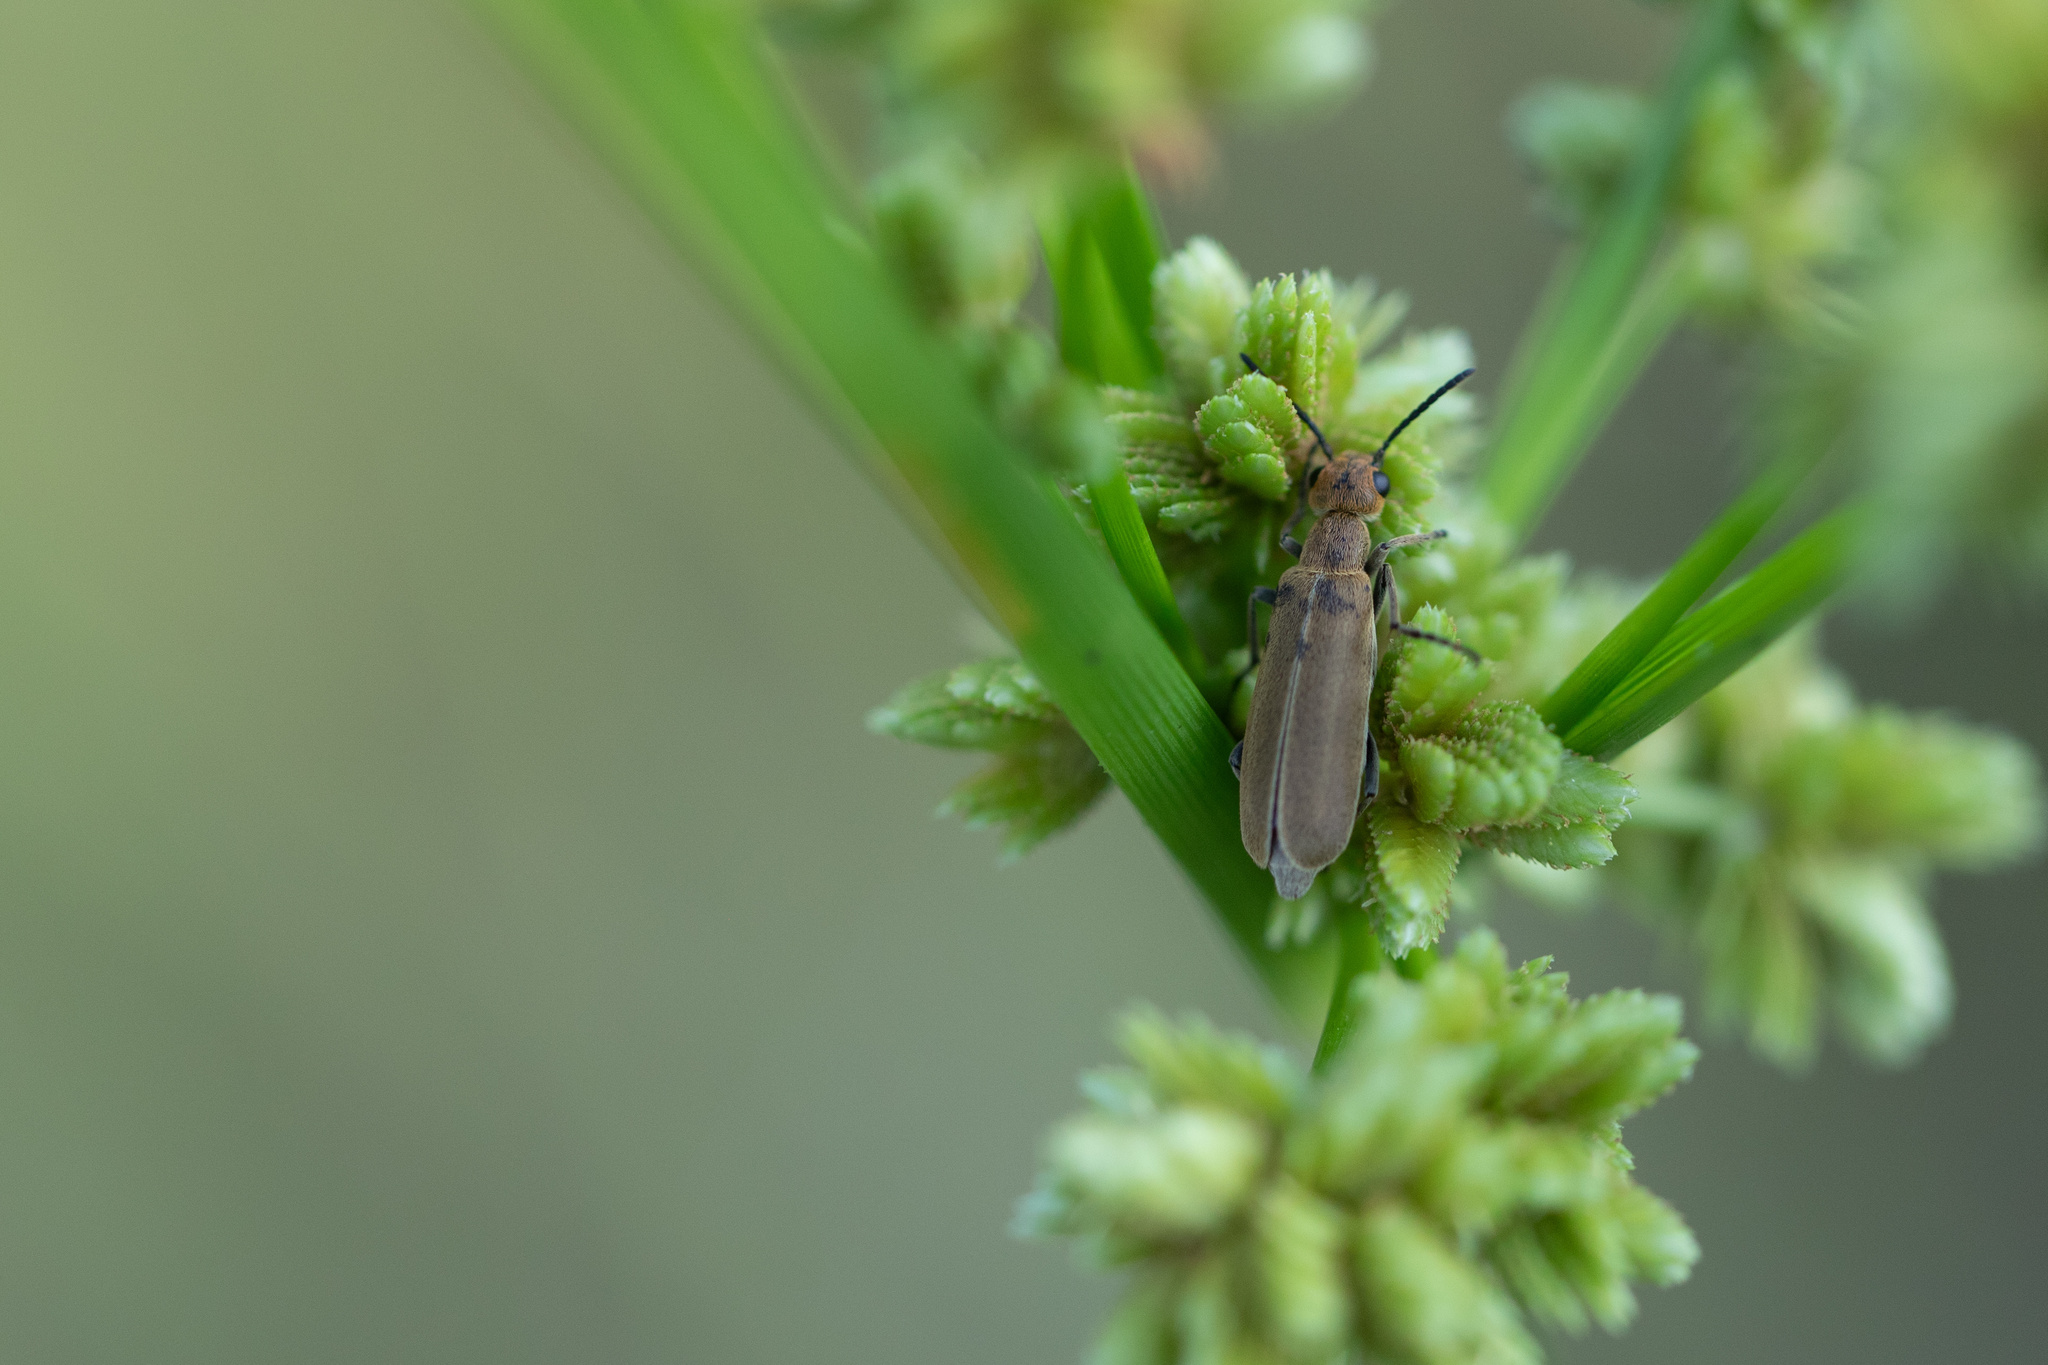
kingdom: Animalia
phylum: Arthropoda
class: Insecta
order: Coleoptera
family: Meloidae
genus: Epicauta
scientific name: Epicauta strigosa
